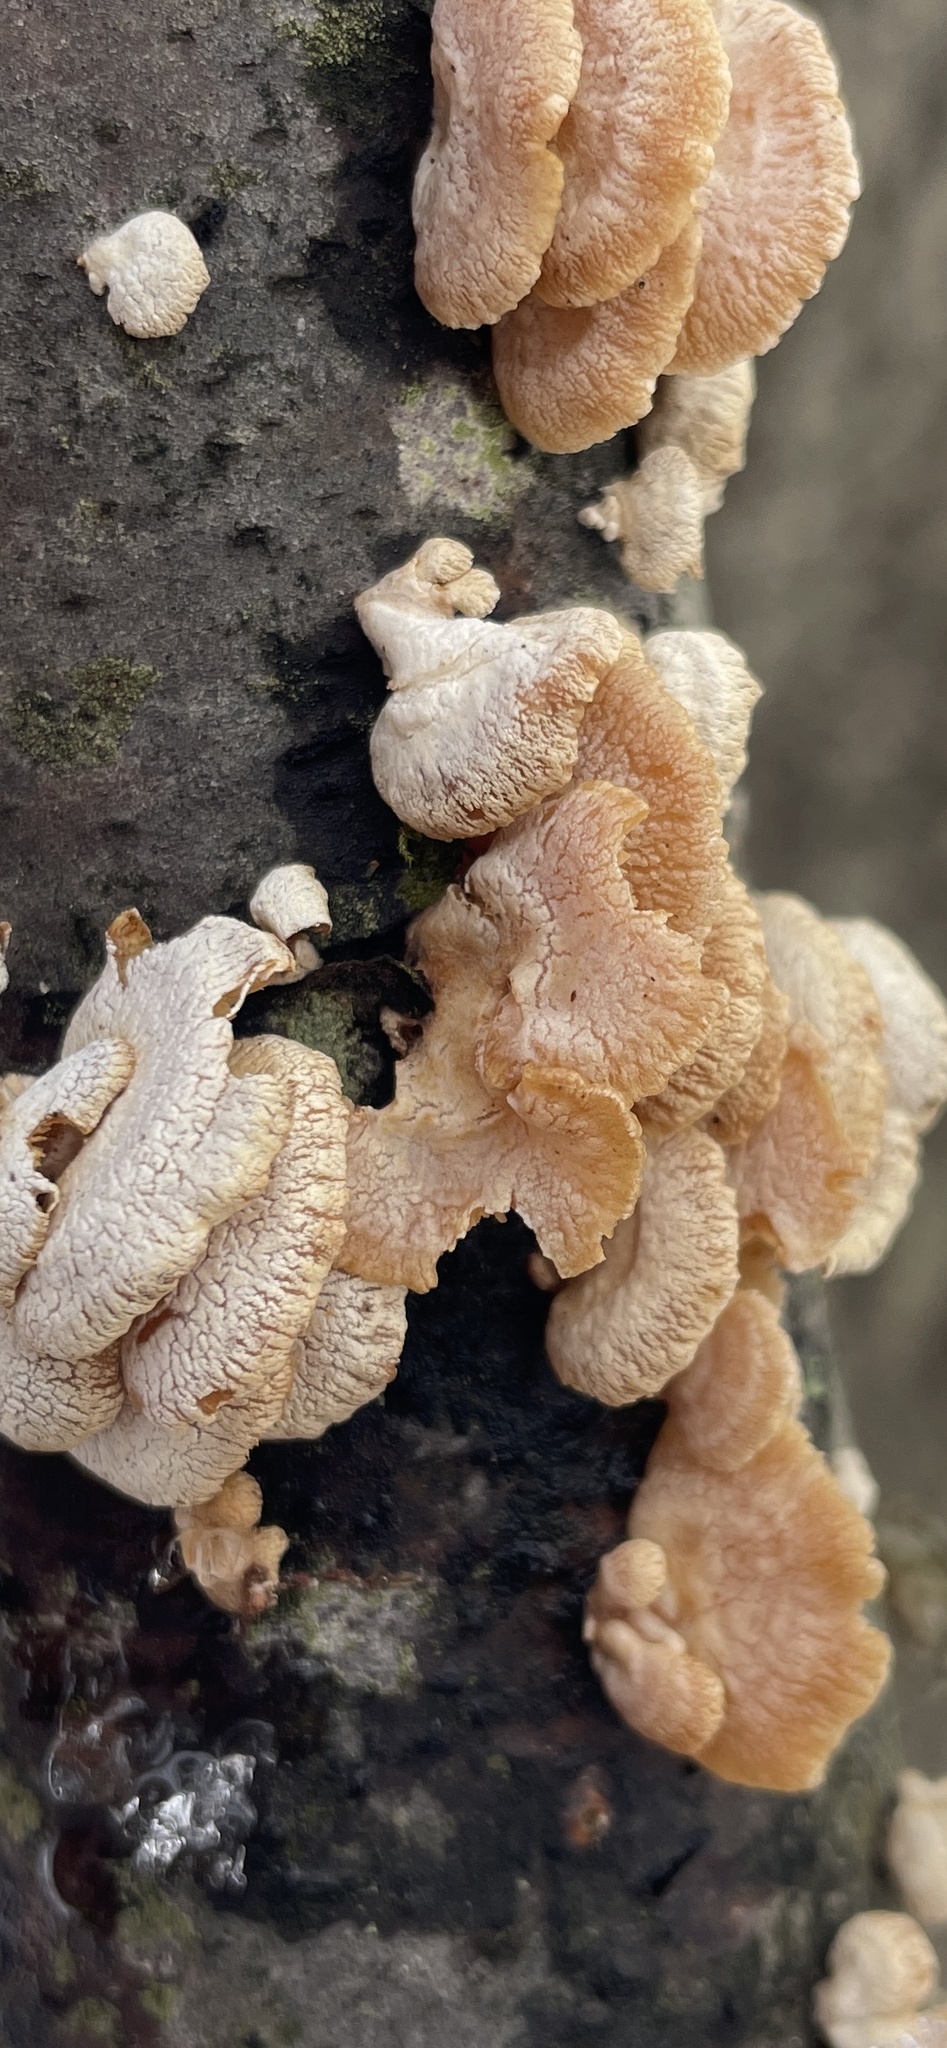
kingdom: Fungi
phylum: Basidiomycota
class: Agaricomycetes
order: Agaricales
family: Mycenaceae
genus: Panellus
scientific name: Panellus stipticus
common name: Bitter oysterling
